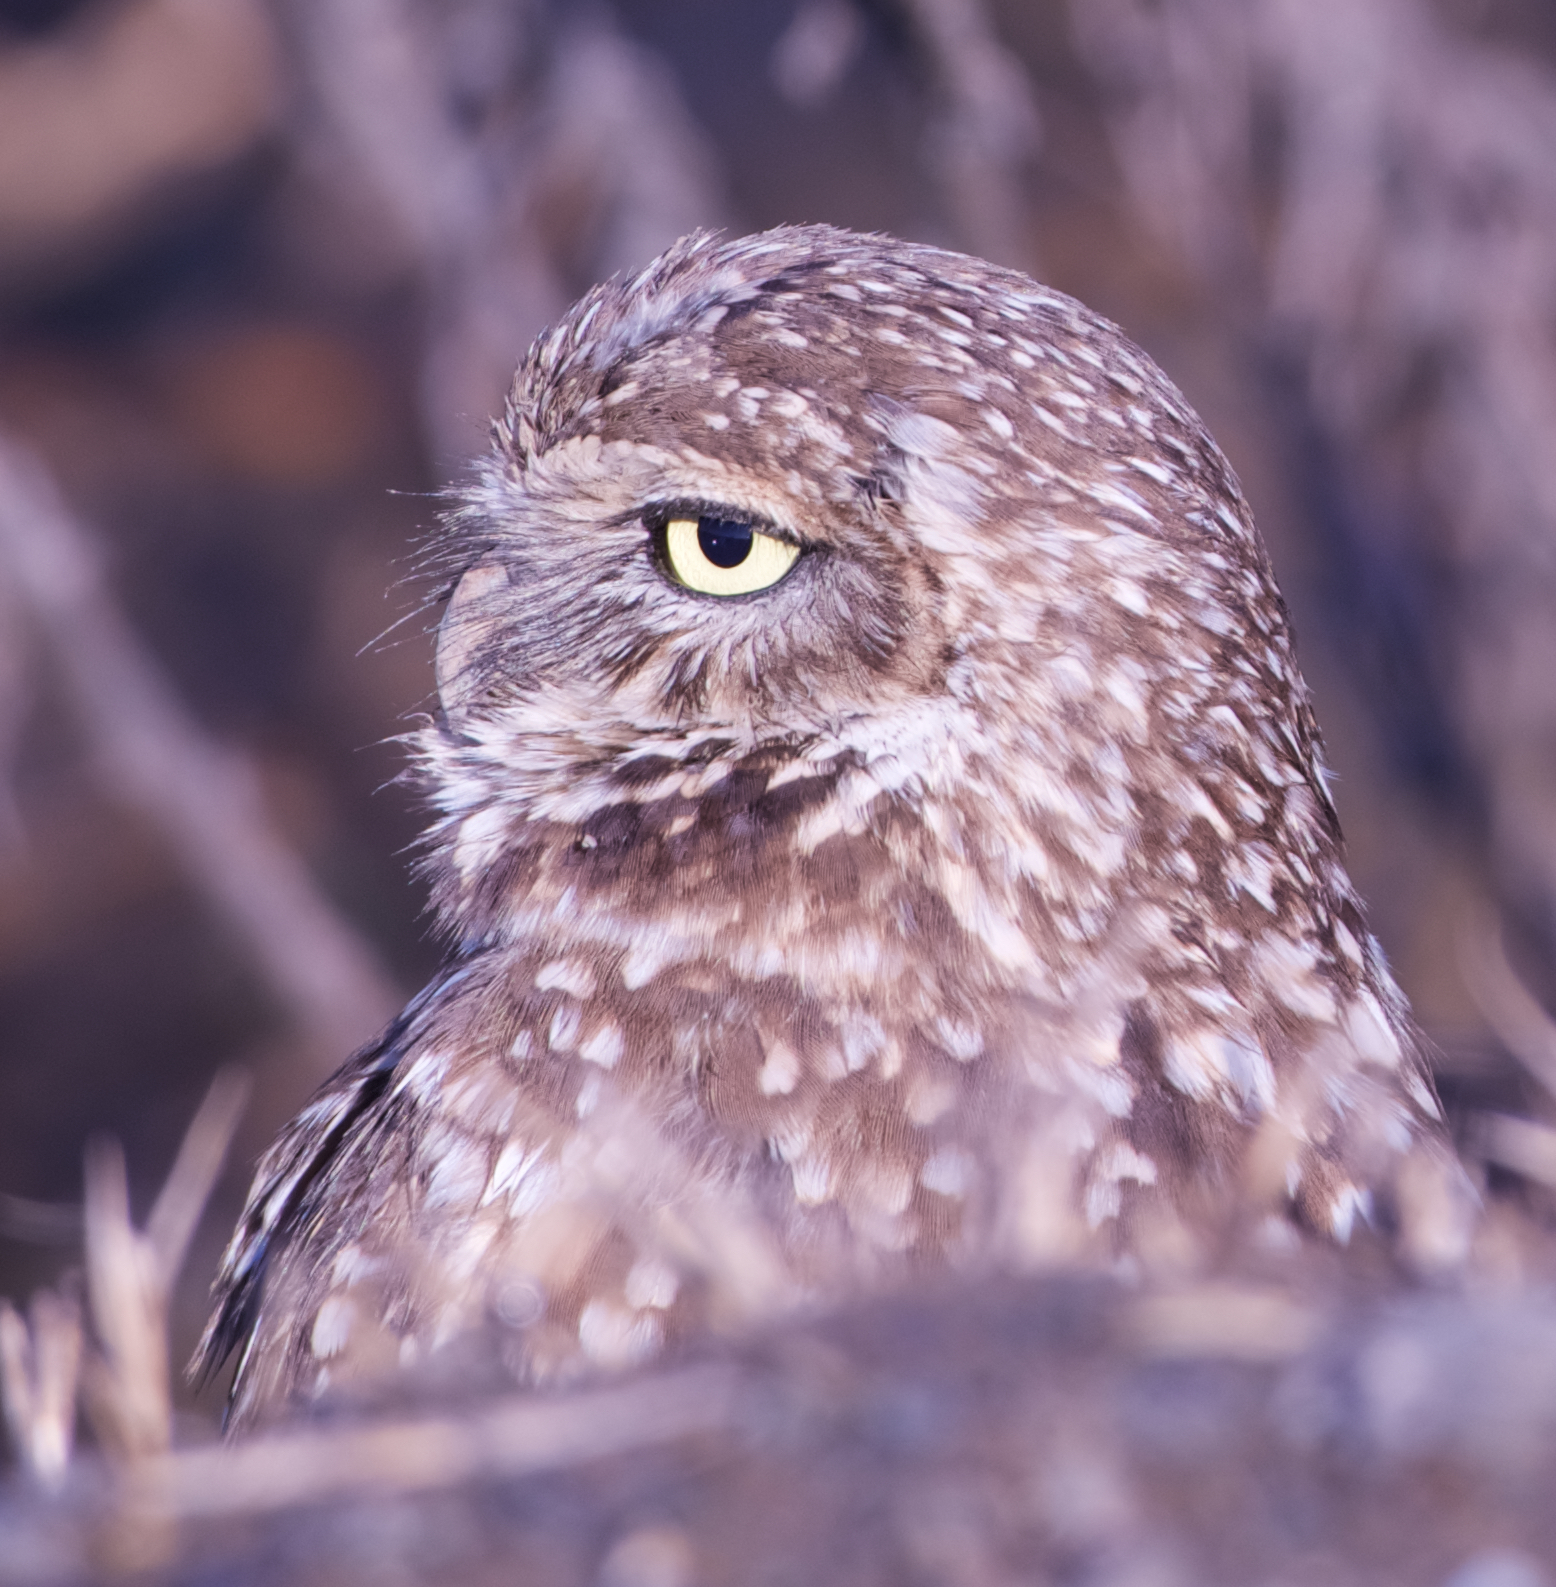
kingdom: Animalia
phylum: Chordata
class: Aves
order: Strigiformes
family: Strigidae
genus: Athene
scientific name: Athene cunicularia
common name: Burrowing owl
